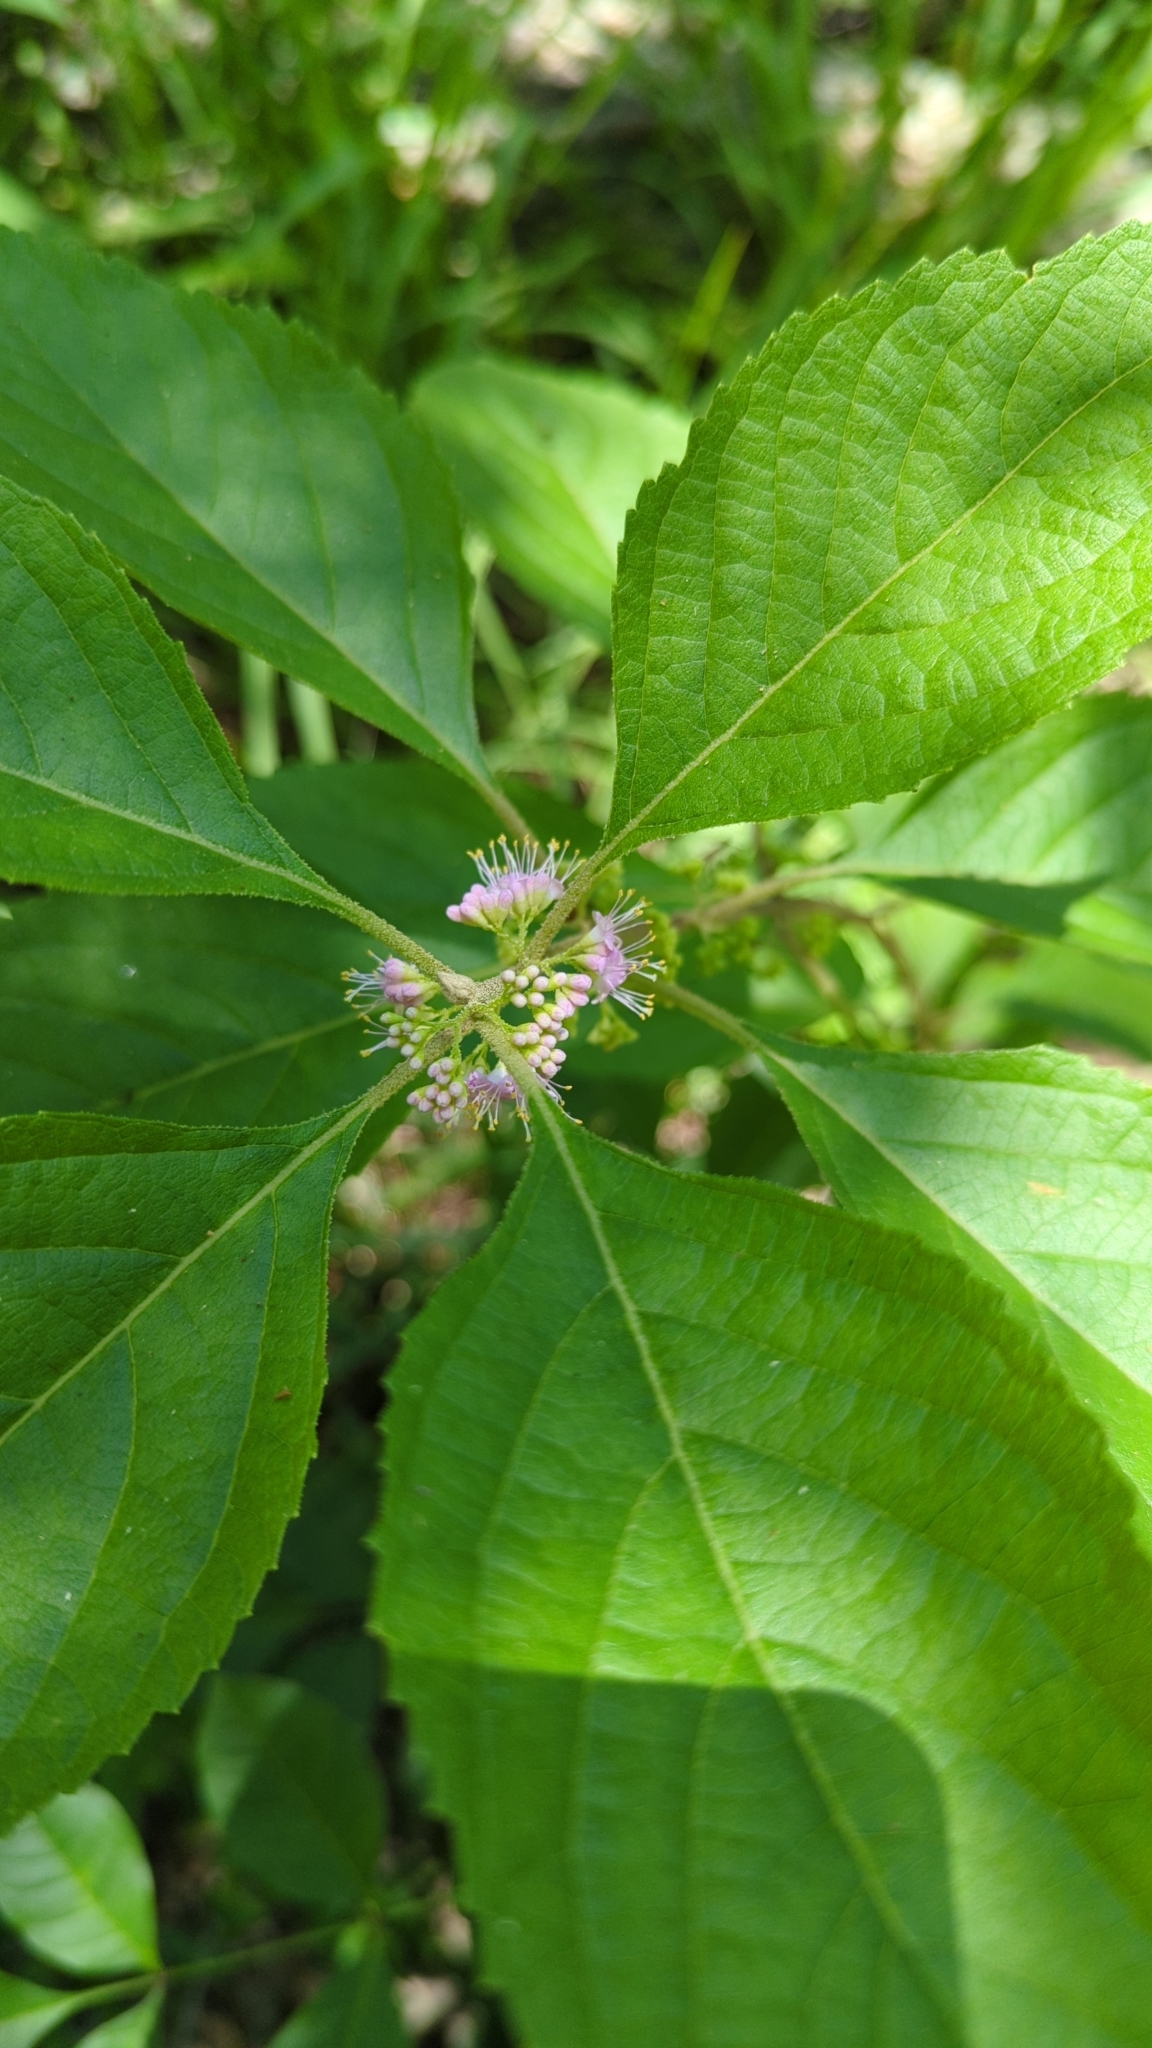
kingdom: Plantae
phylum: Tracheophyta
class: Magnoliopsida
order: Lamiales
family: Lamiaceae
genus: Callicarpa
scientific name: Callicarpa americana
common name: American beautyberry
